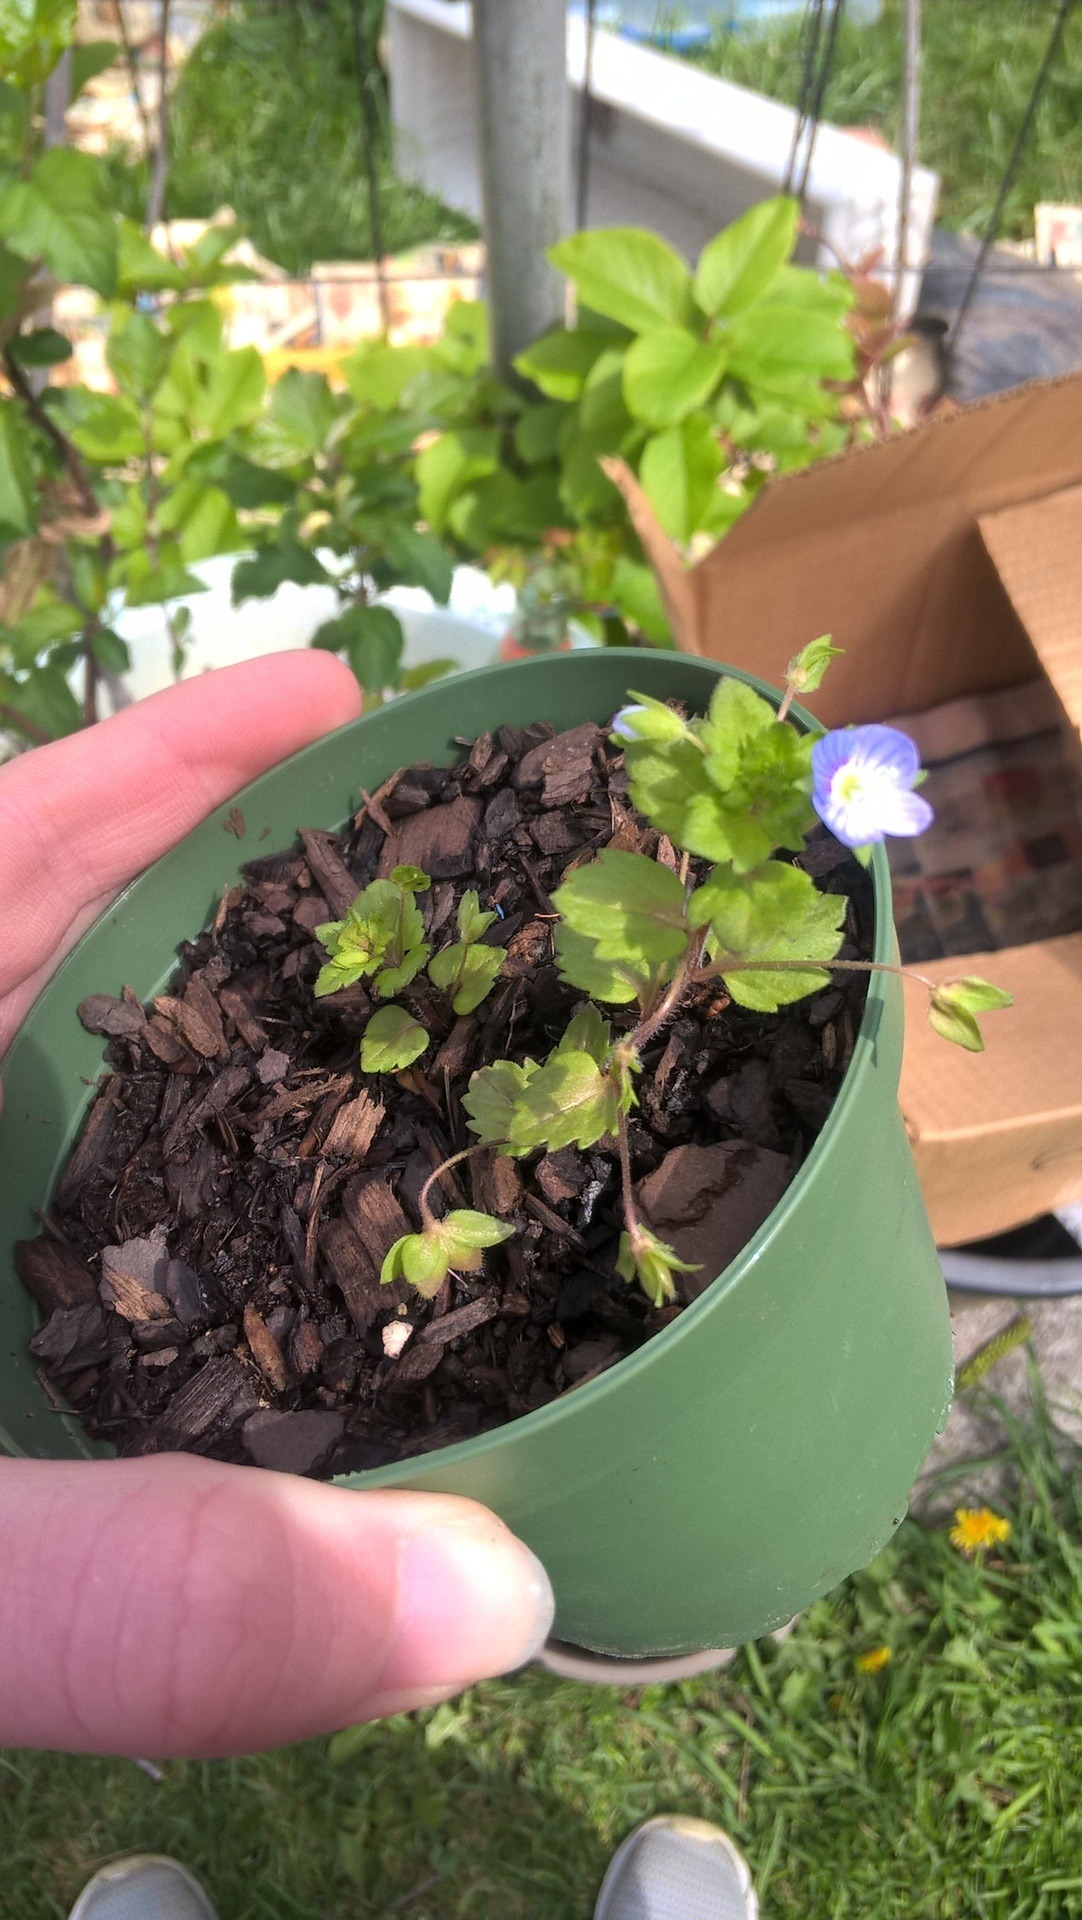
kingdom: Plantae
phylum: Tracheophyta
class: Magnoliopsida
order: Lamiales
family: Plantaginaceae
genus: Veronica
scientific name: Veronica persica
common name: Common field-speedwell
